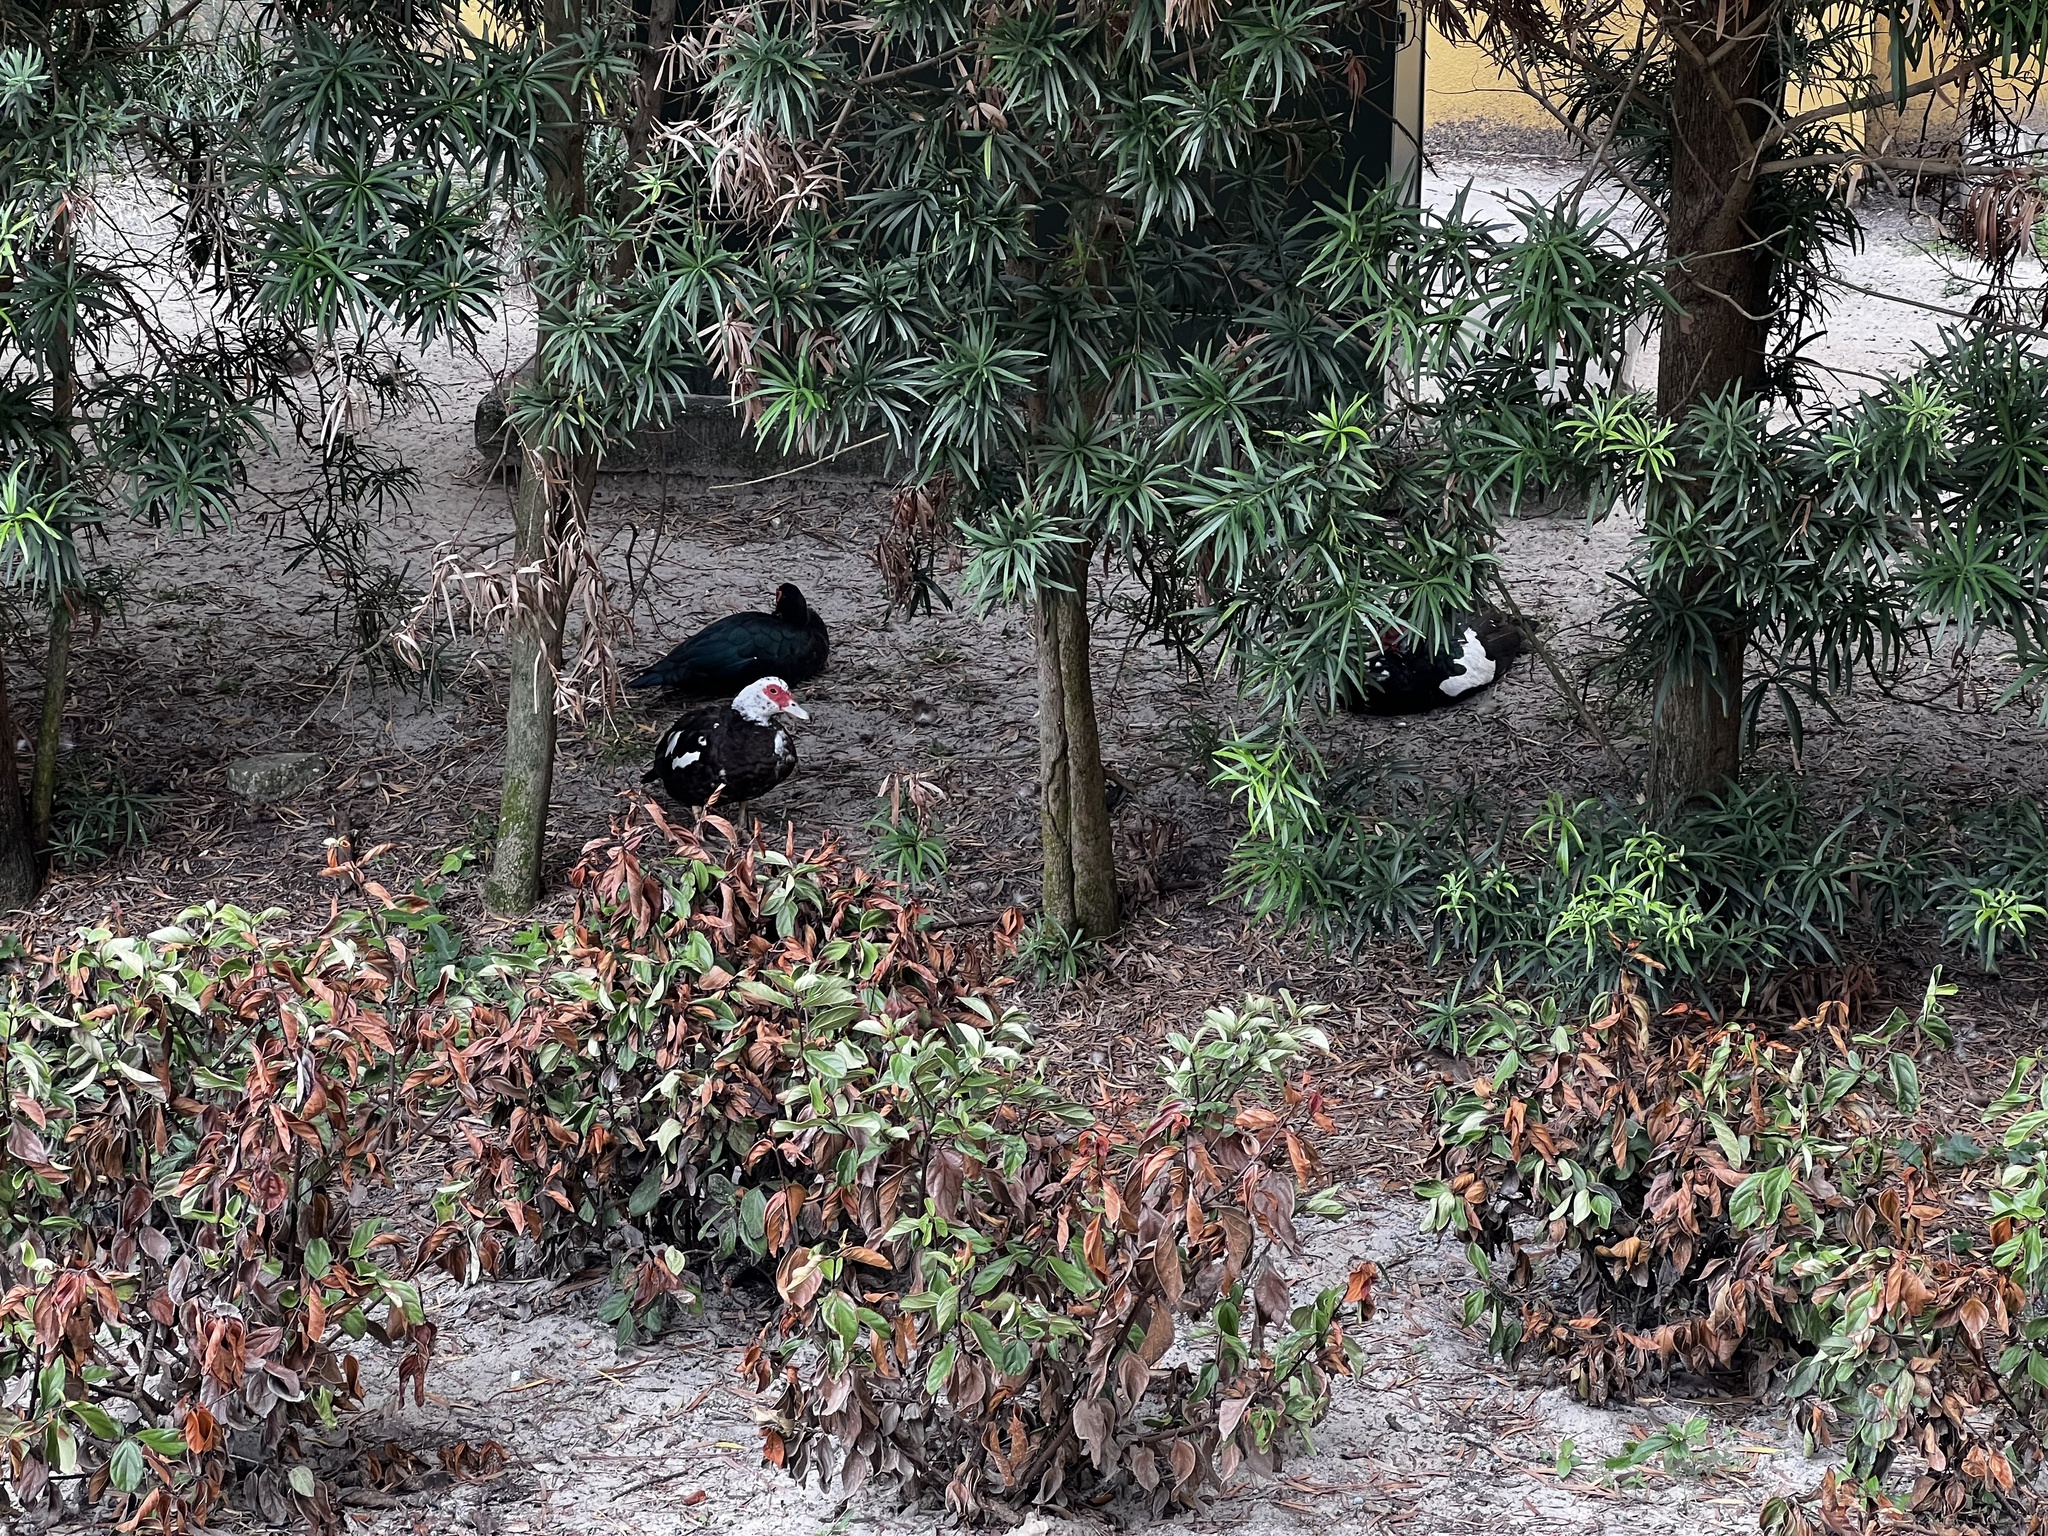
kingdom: Animalia
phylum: Chordata
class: Aves
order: Anseriformes
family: Anatidae
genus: Cairina
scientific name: Cairina moschata
